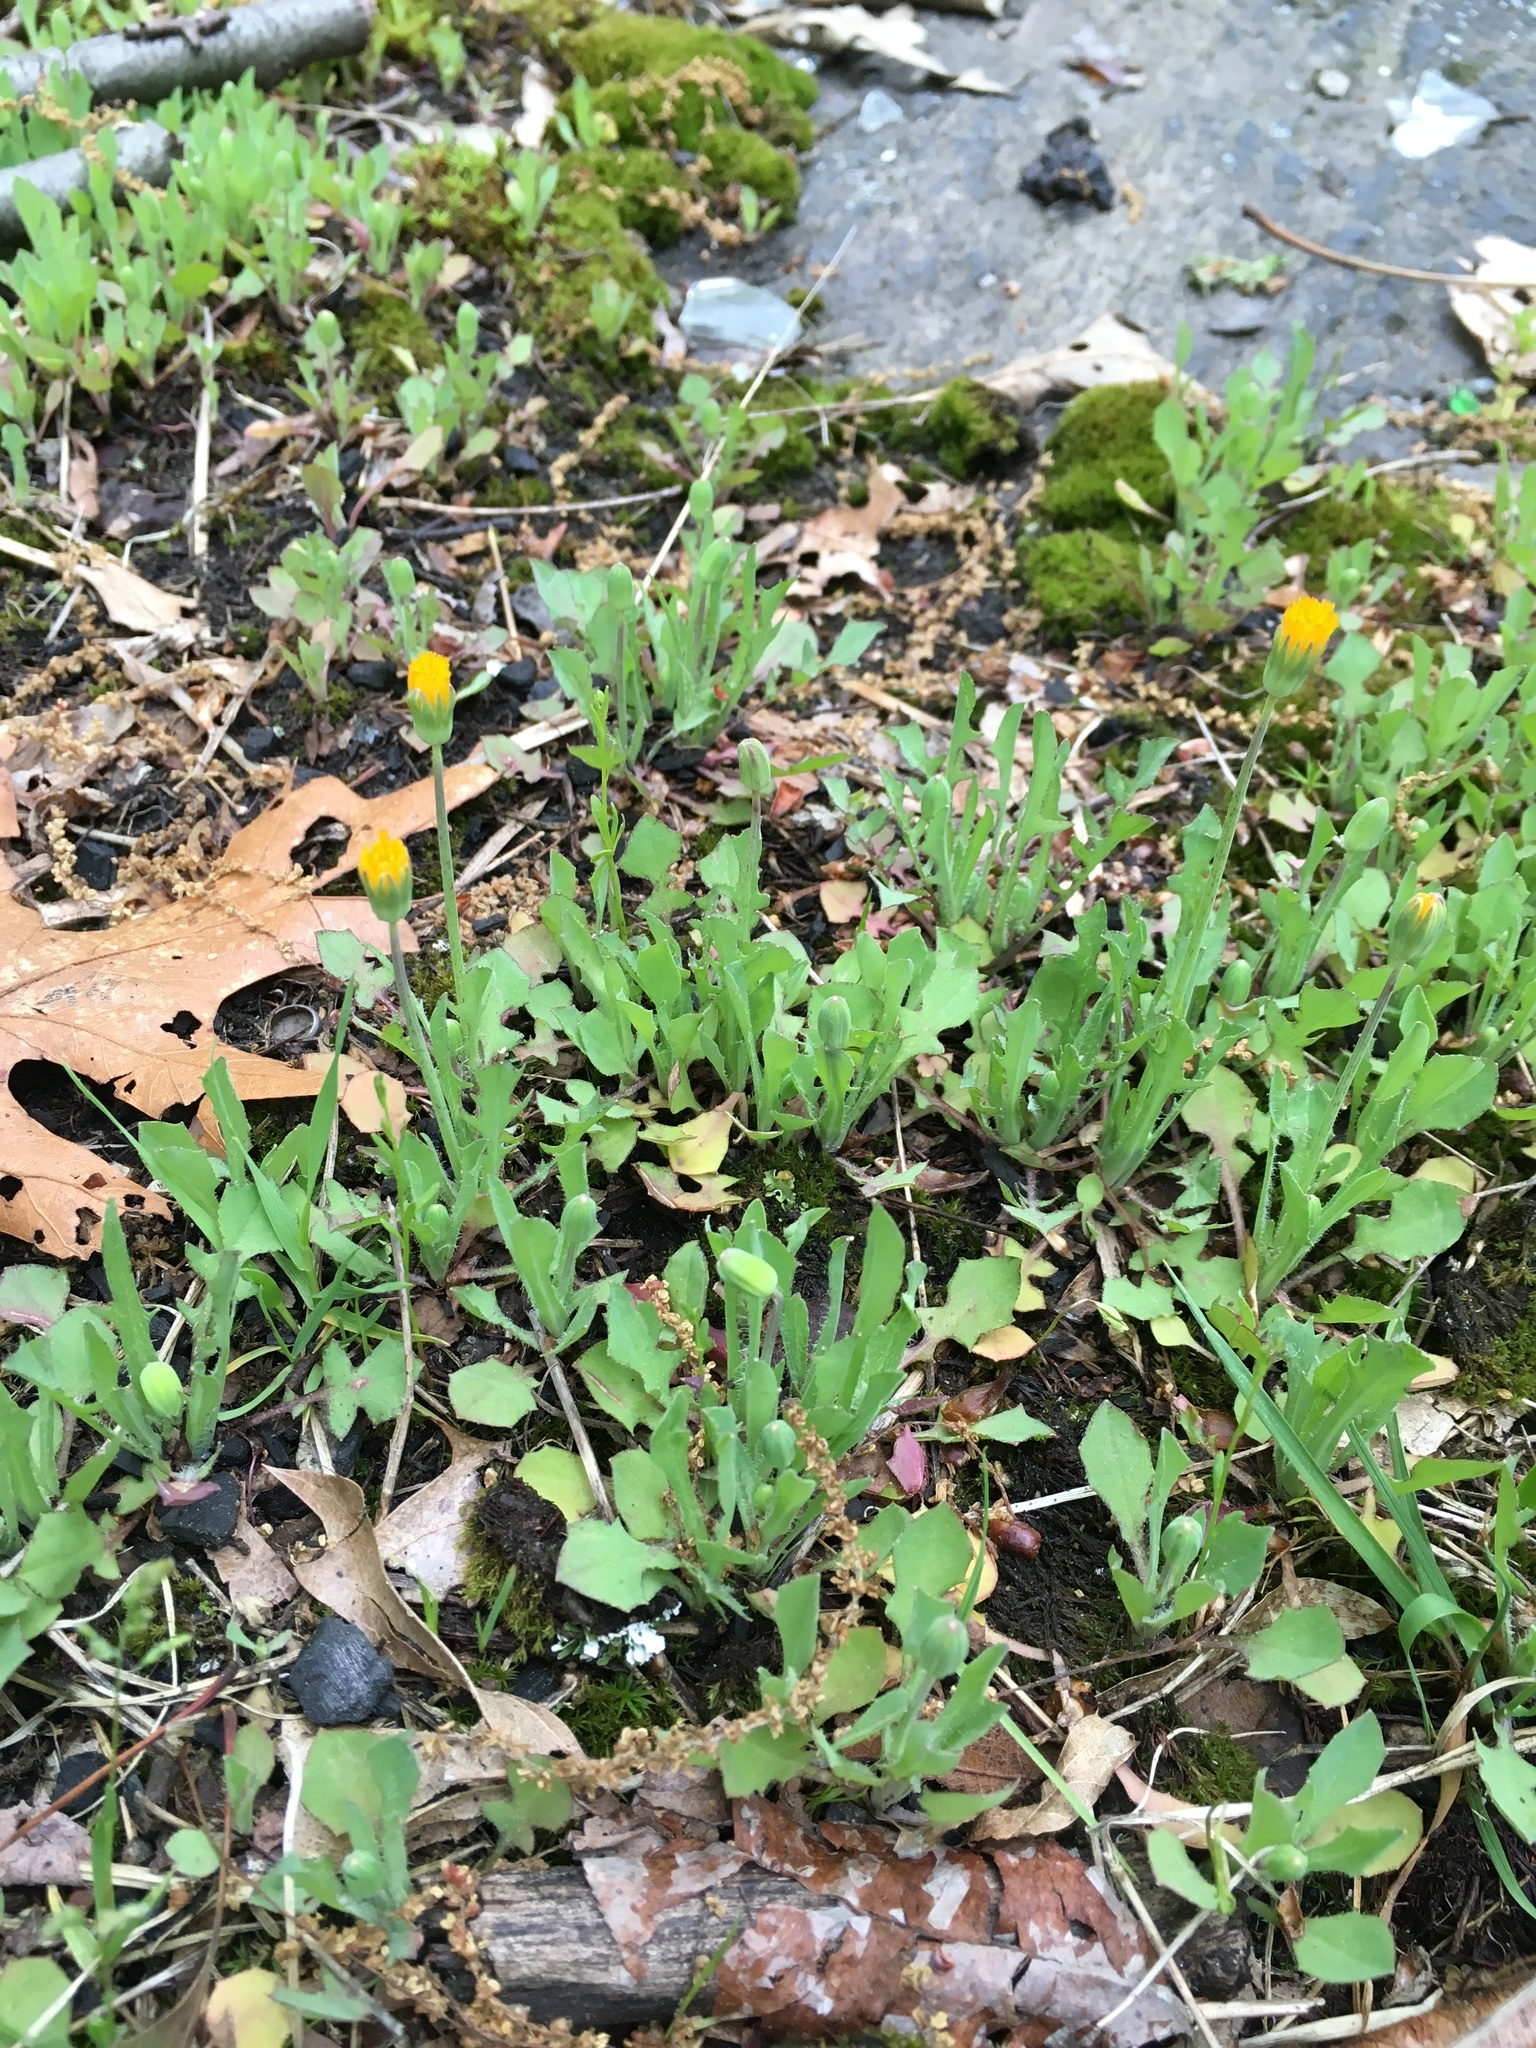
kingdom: Plantae
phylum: Tracheophyta
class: Magnoliopsida
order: Asterales
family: Asteraceae
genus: Krigia
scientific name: Krigia virginica
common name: Virginia dwarf-dandelion
